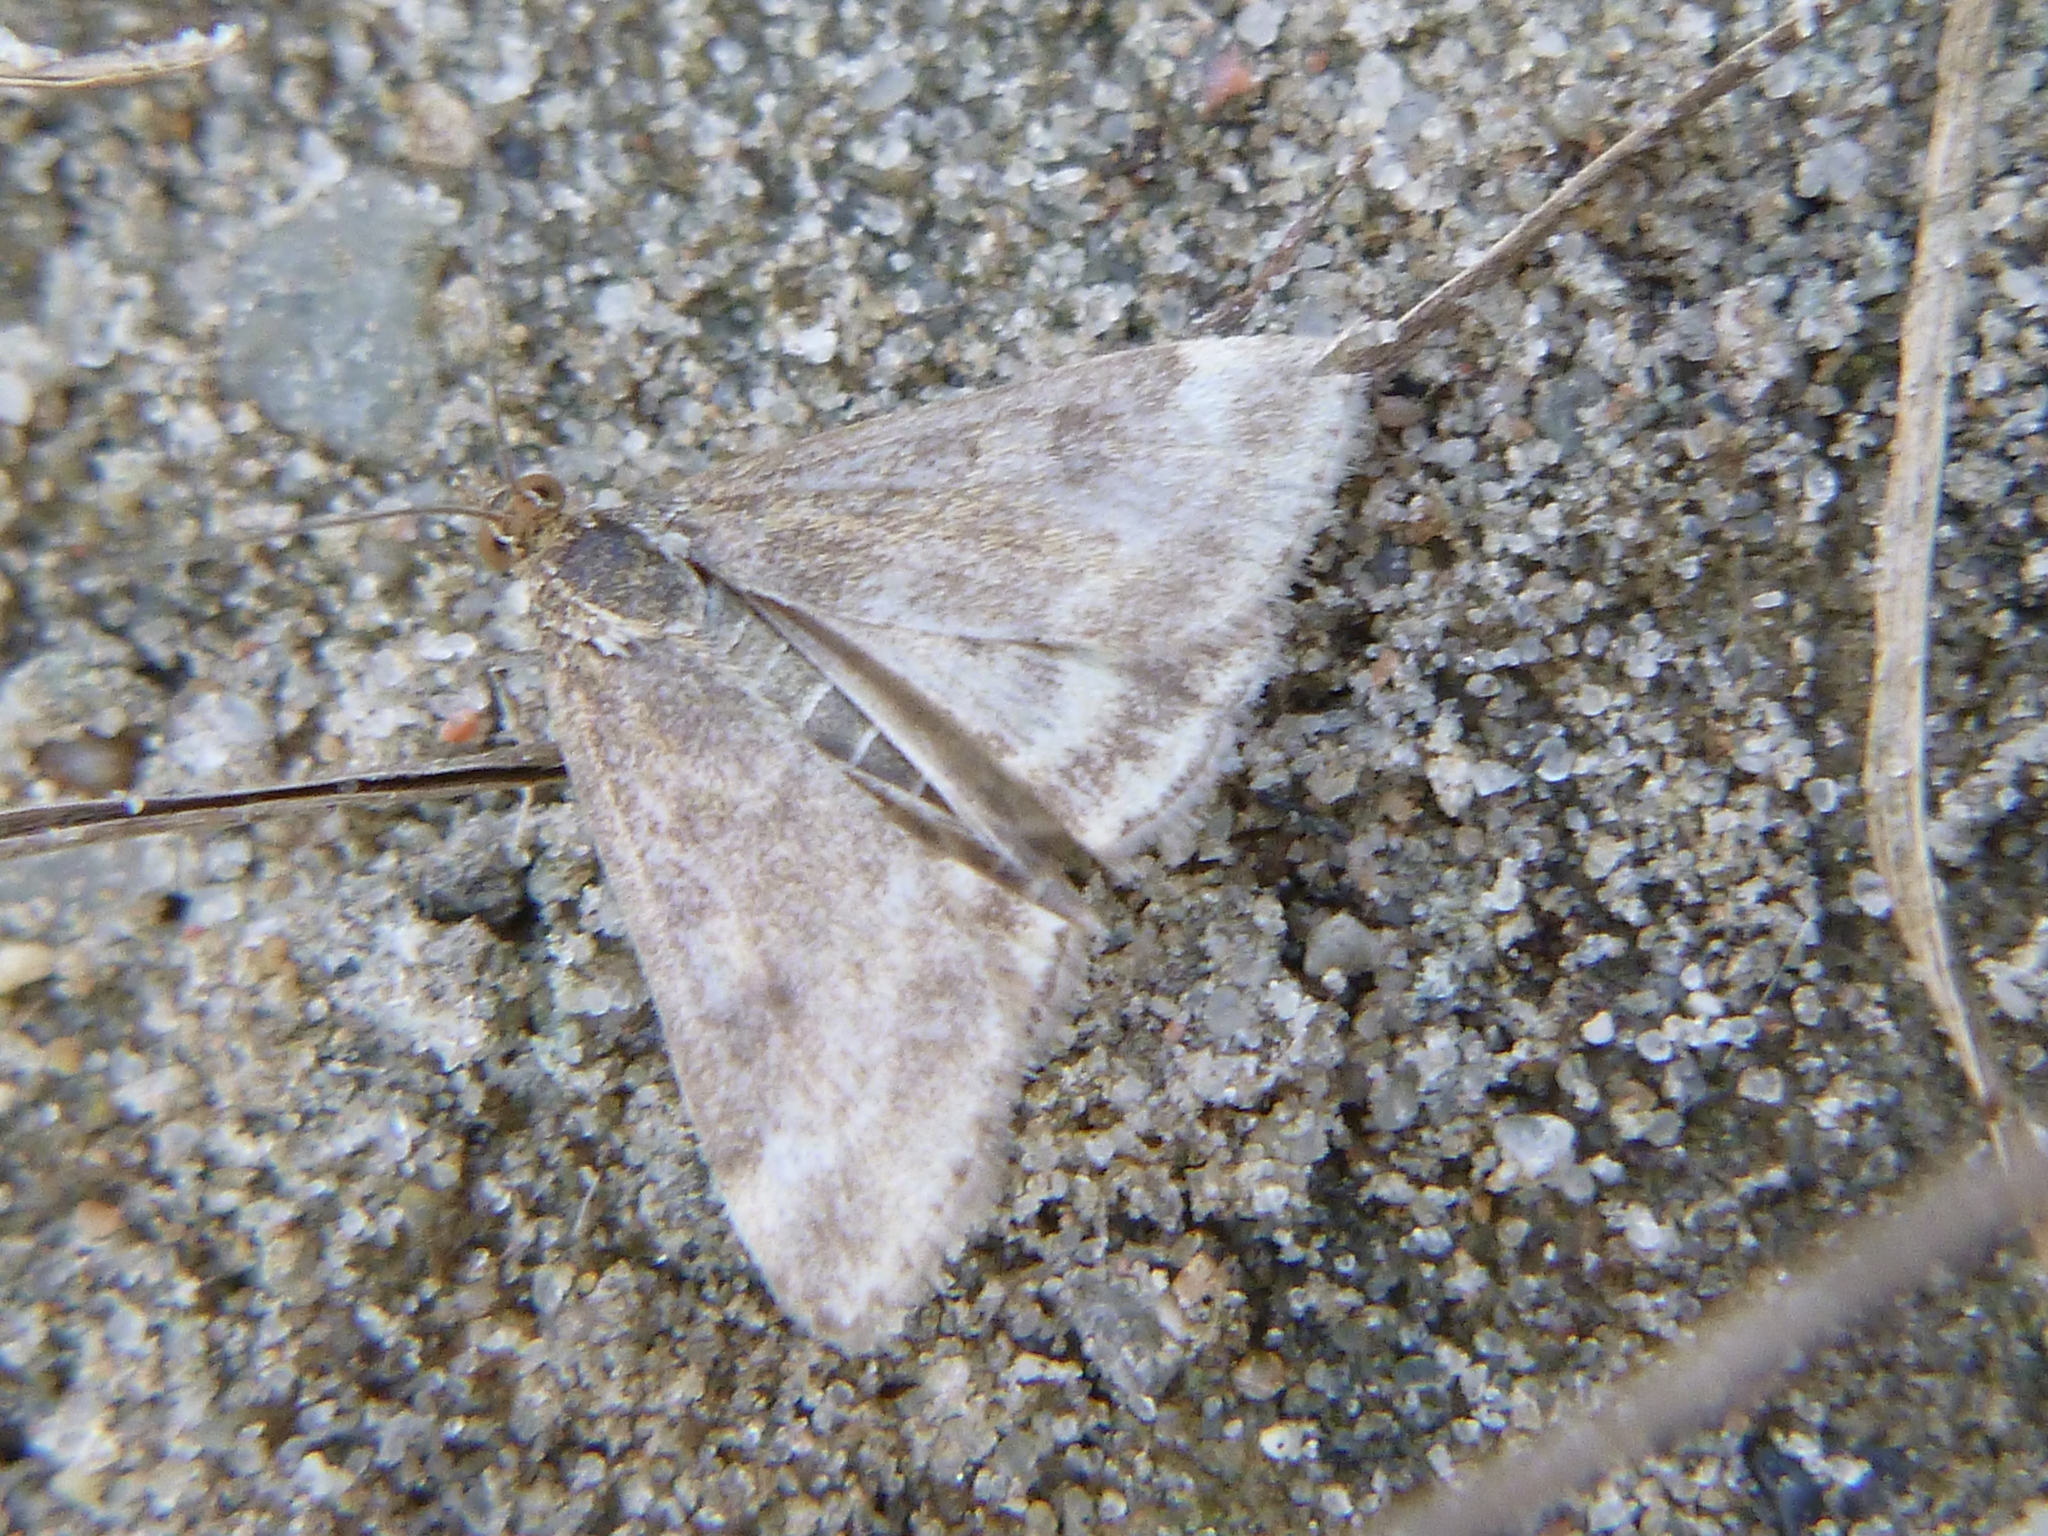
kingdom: Animalia
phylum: Arthropoda
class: Insecta
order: Lepidoptera
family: Crambidae
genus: Pyrausta
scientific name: Pyrausta despicata
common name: Straw-barred pearl
